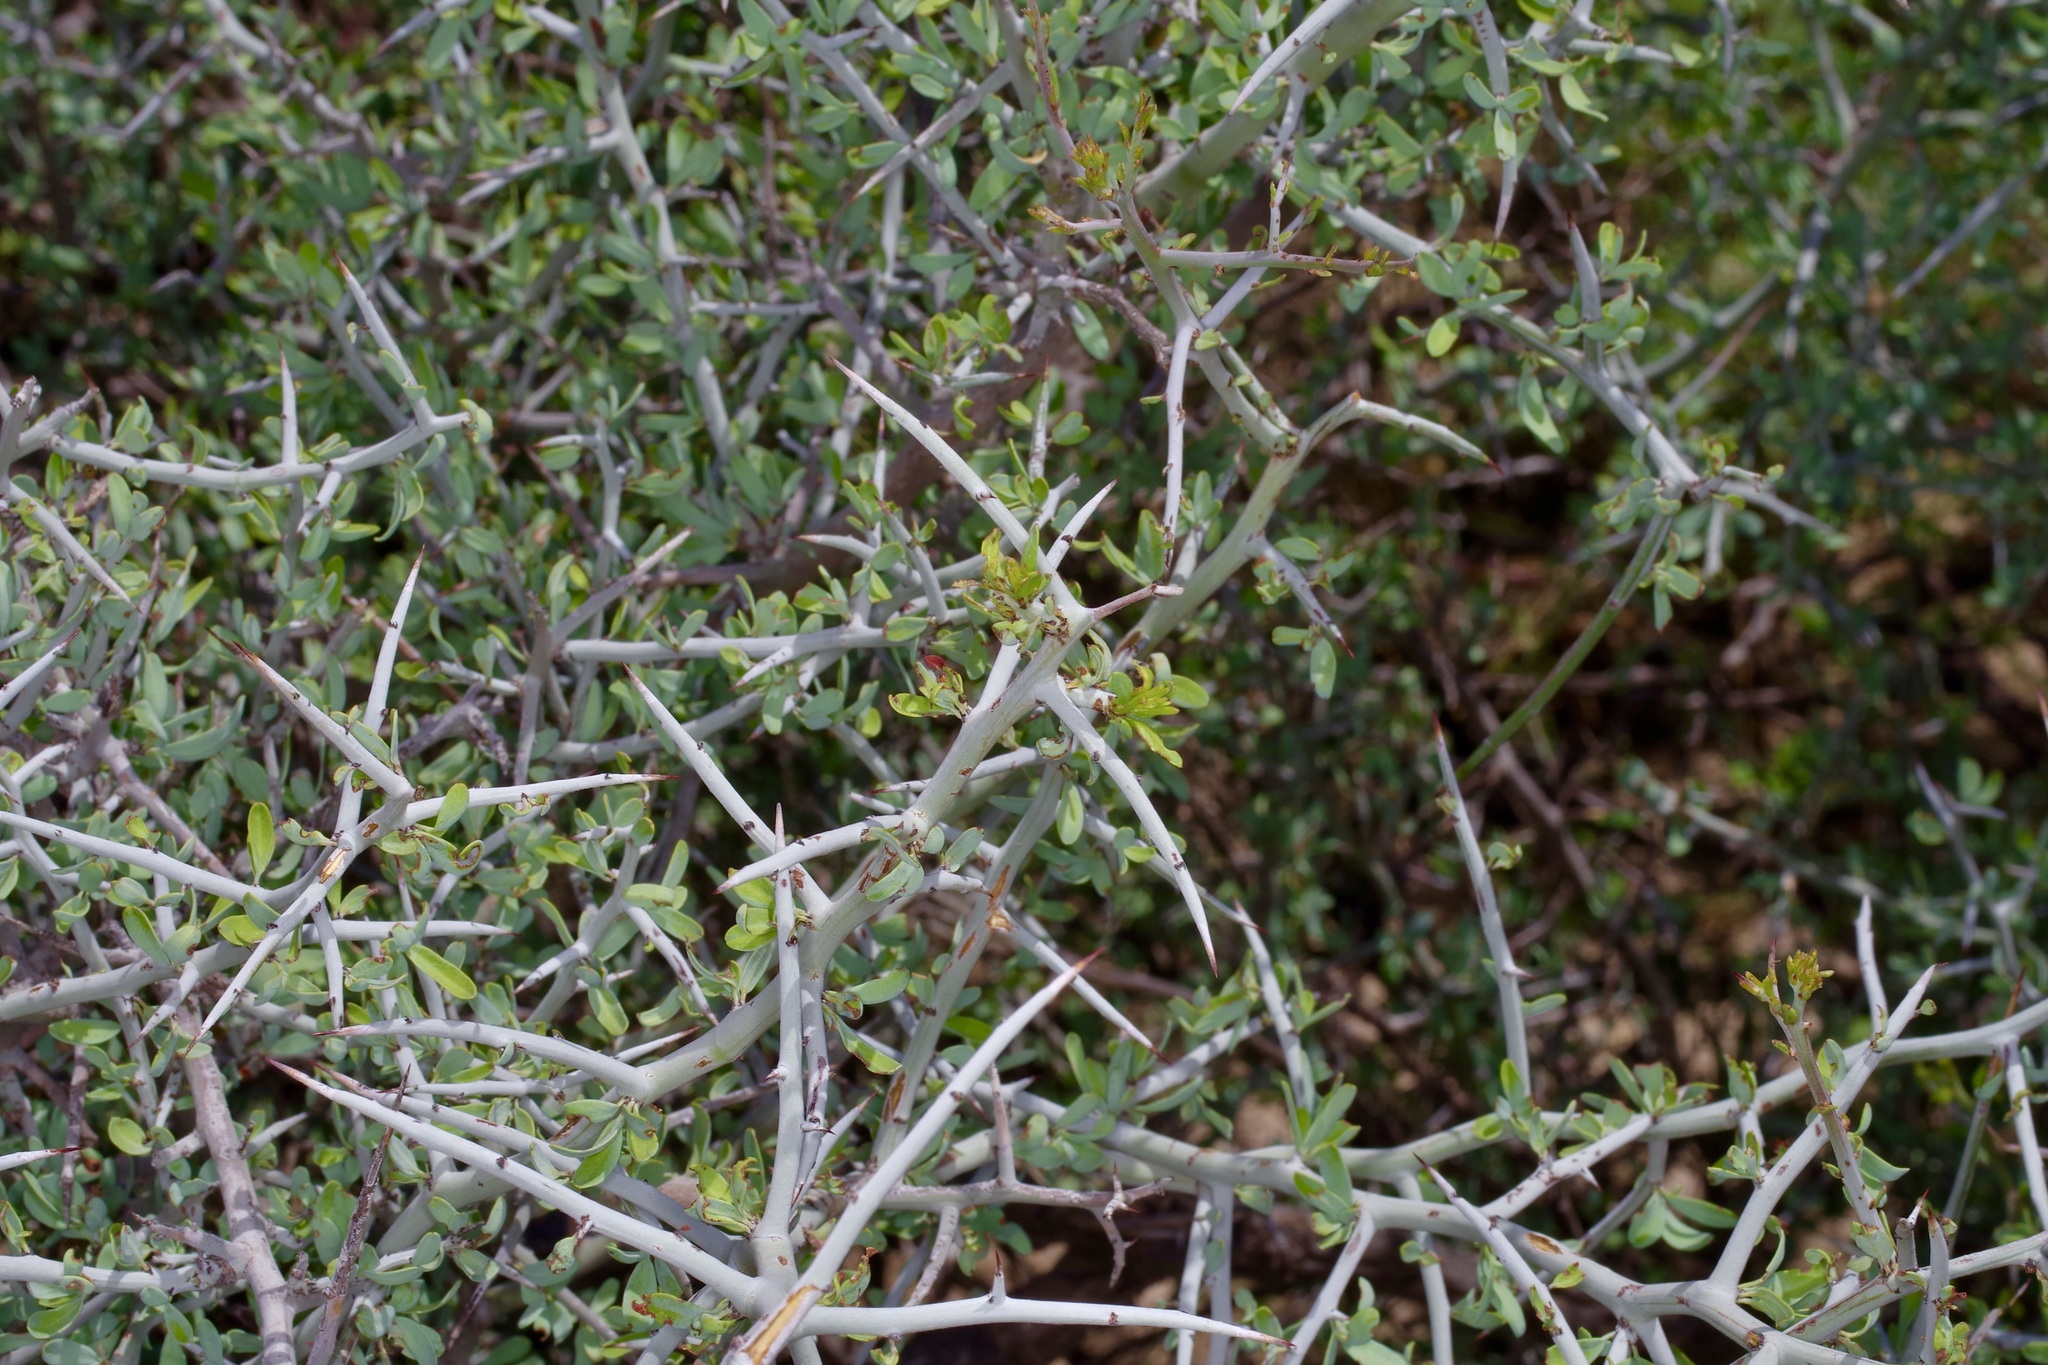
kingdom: Plantae
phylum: Tracheophyta
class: Magnoliopsida
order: Rosales
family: Rhamnaceae
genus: Sarcomphalus
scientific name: Sarcomphalus obtusifolius
